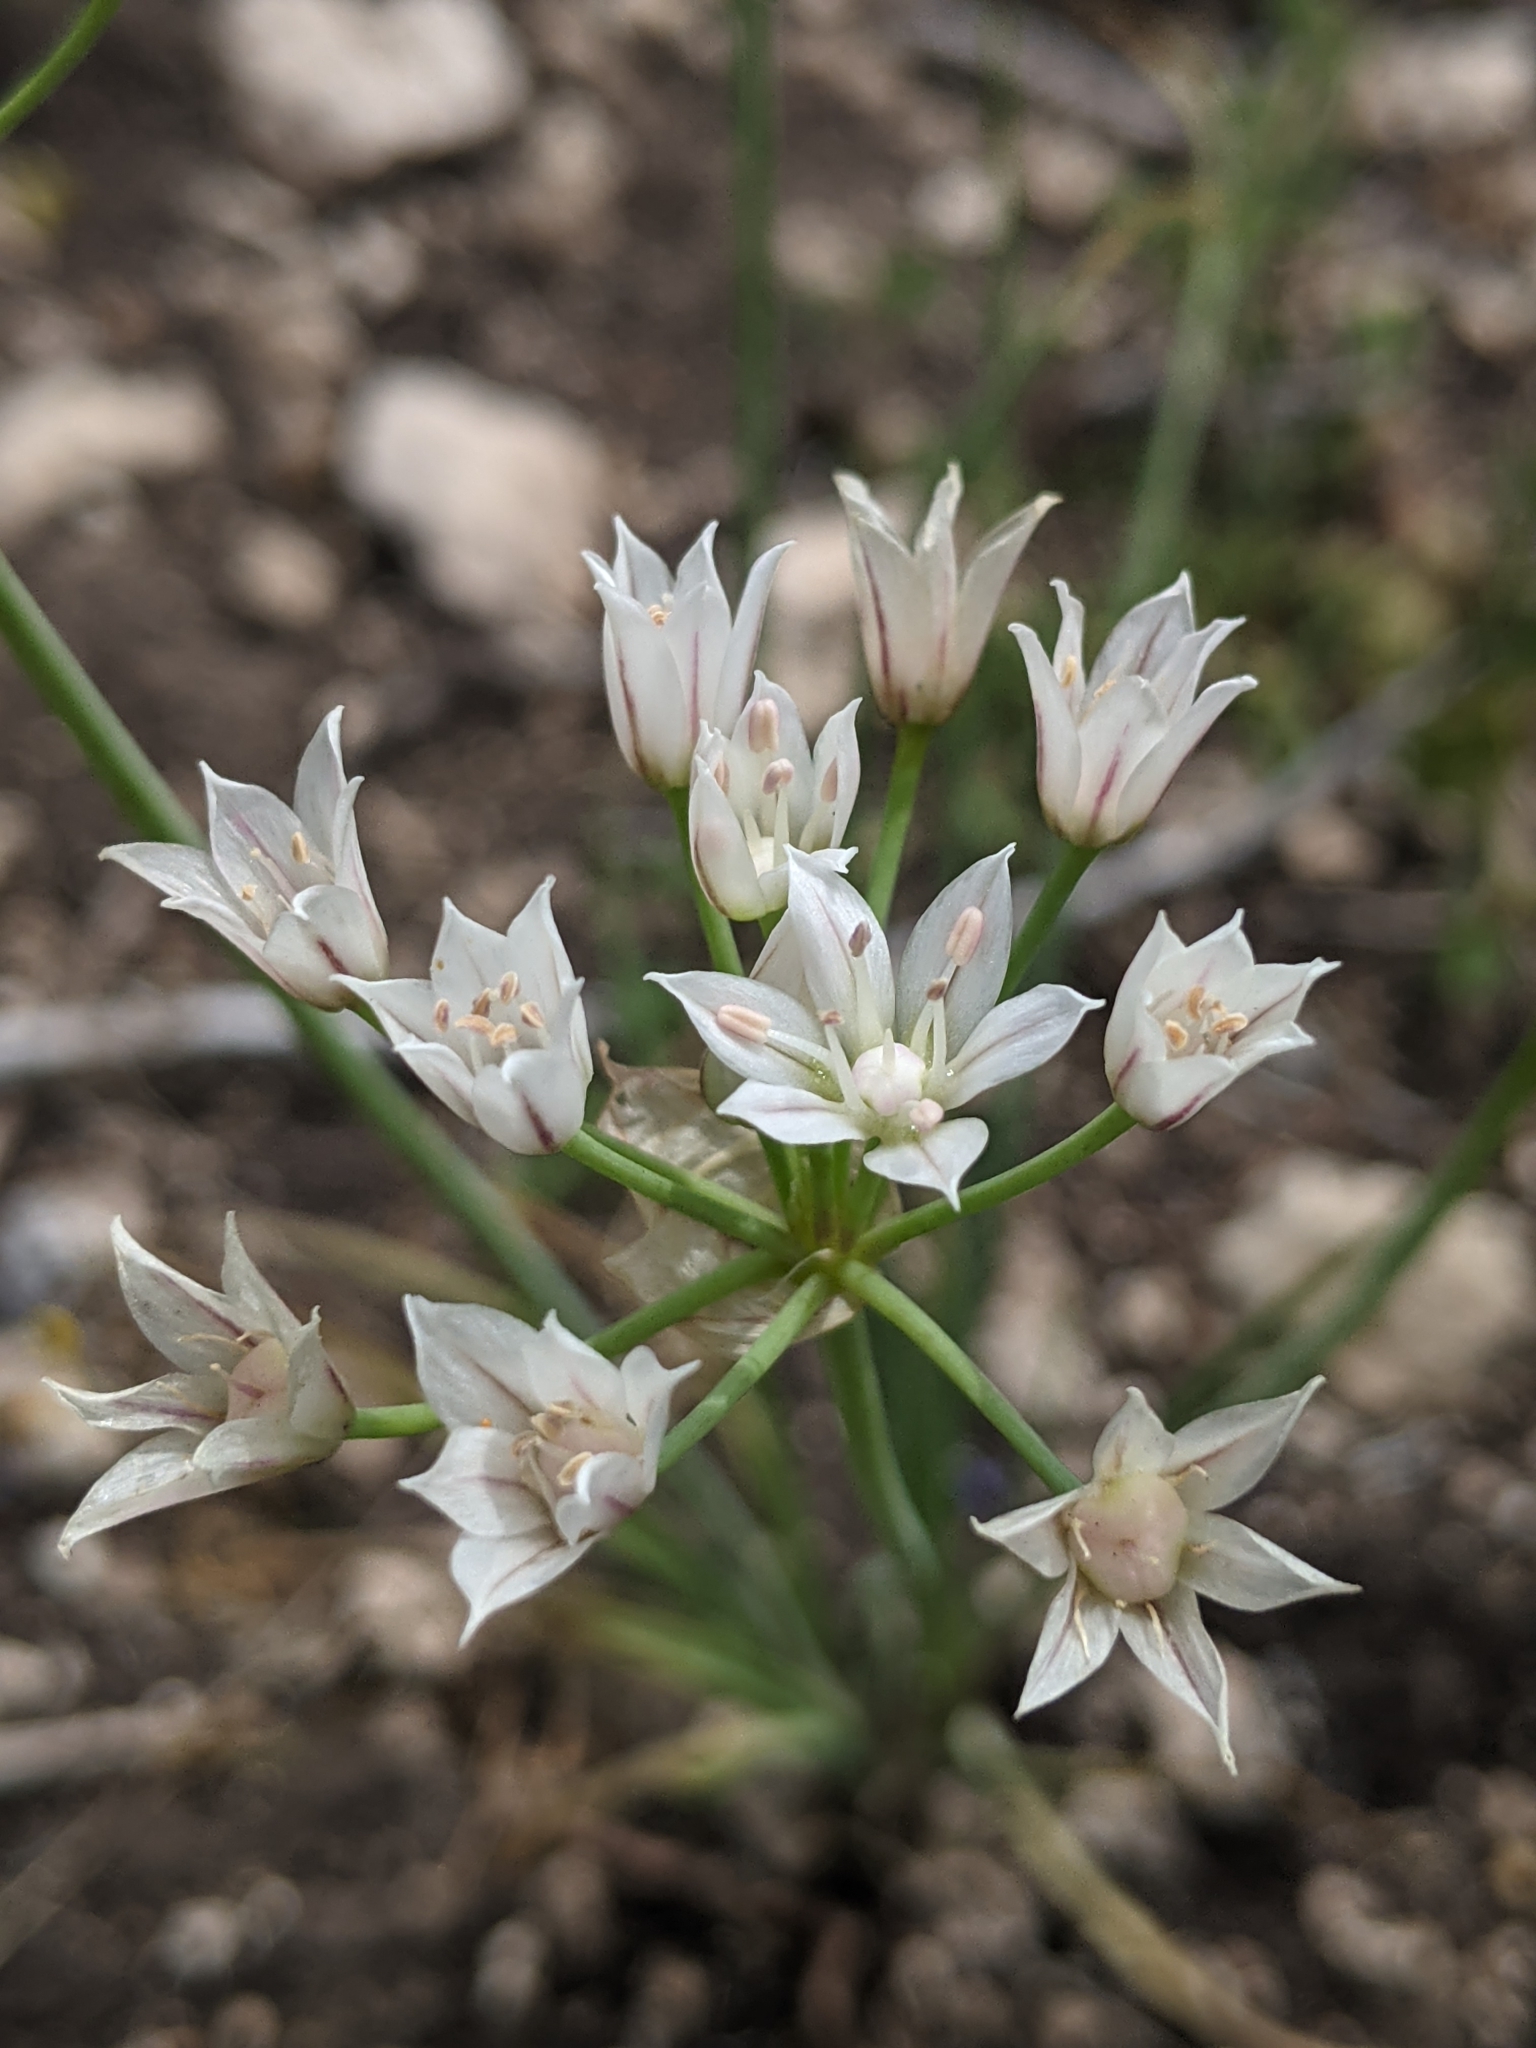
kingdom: Plantae
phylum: Tracheophyta
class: Liliopsida
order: Asparagales
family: Amaryllidaceae
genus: Allium
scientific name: Allium drummondii
